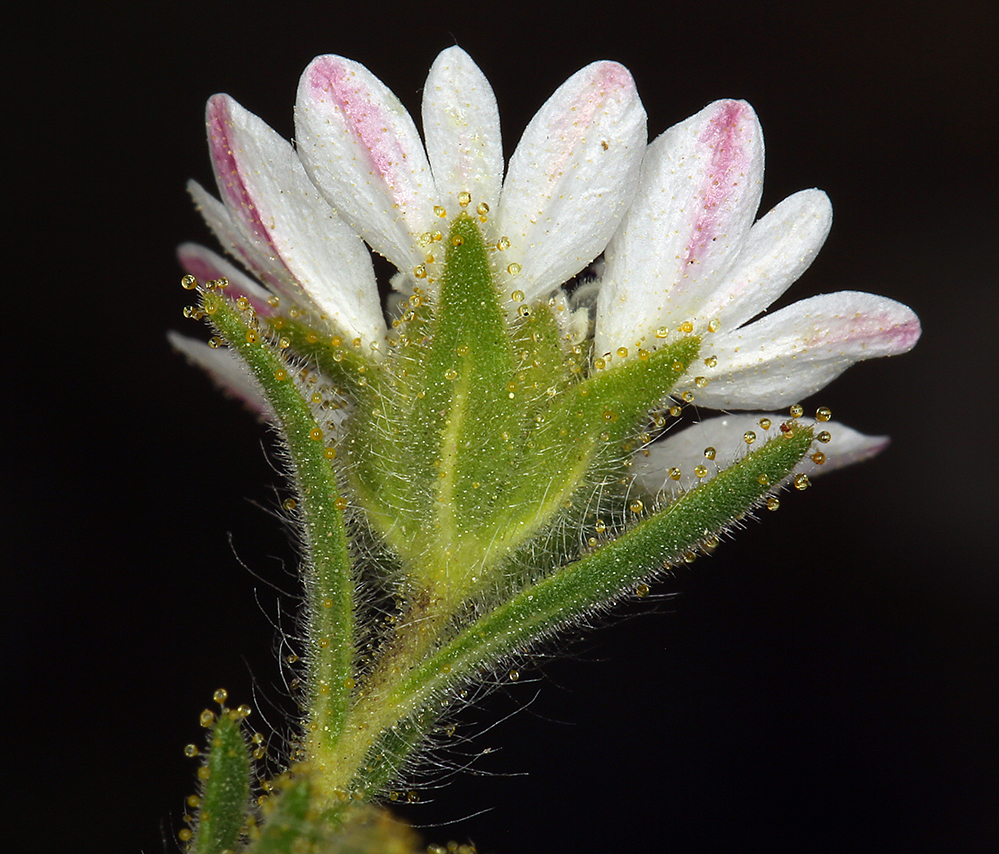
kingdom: Plantae
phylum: Tracheophyta
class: Magnoliopsida
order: Asterales
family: Asteraceae
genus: Hemizonia
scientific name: Hemizonia congesta
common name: Hayfield tarweed
